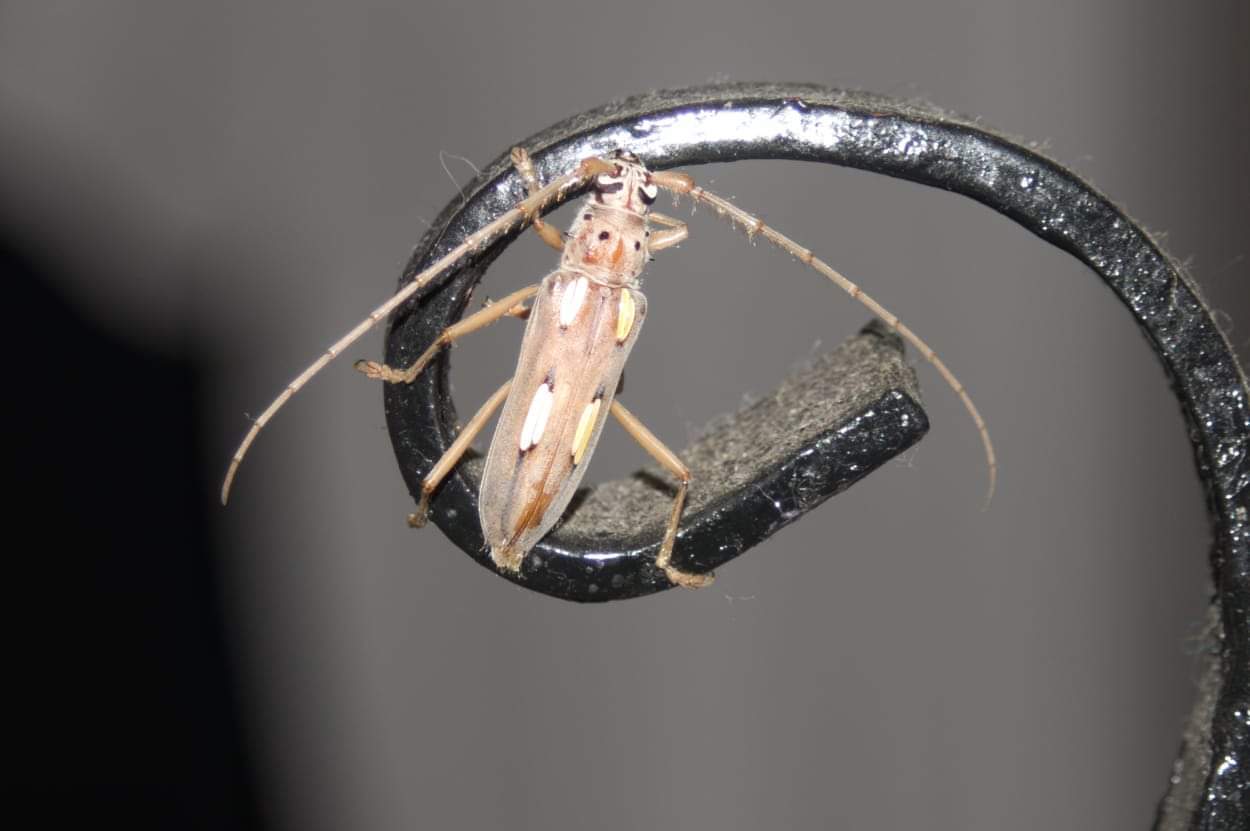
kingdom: Animalia
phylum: Arthropoda
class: Insecta
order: Coleoptera
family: Cerambycidae
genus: Eburia
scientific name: Eburia semipubescens
